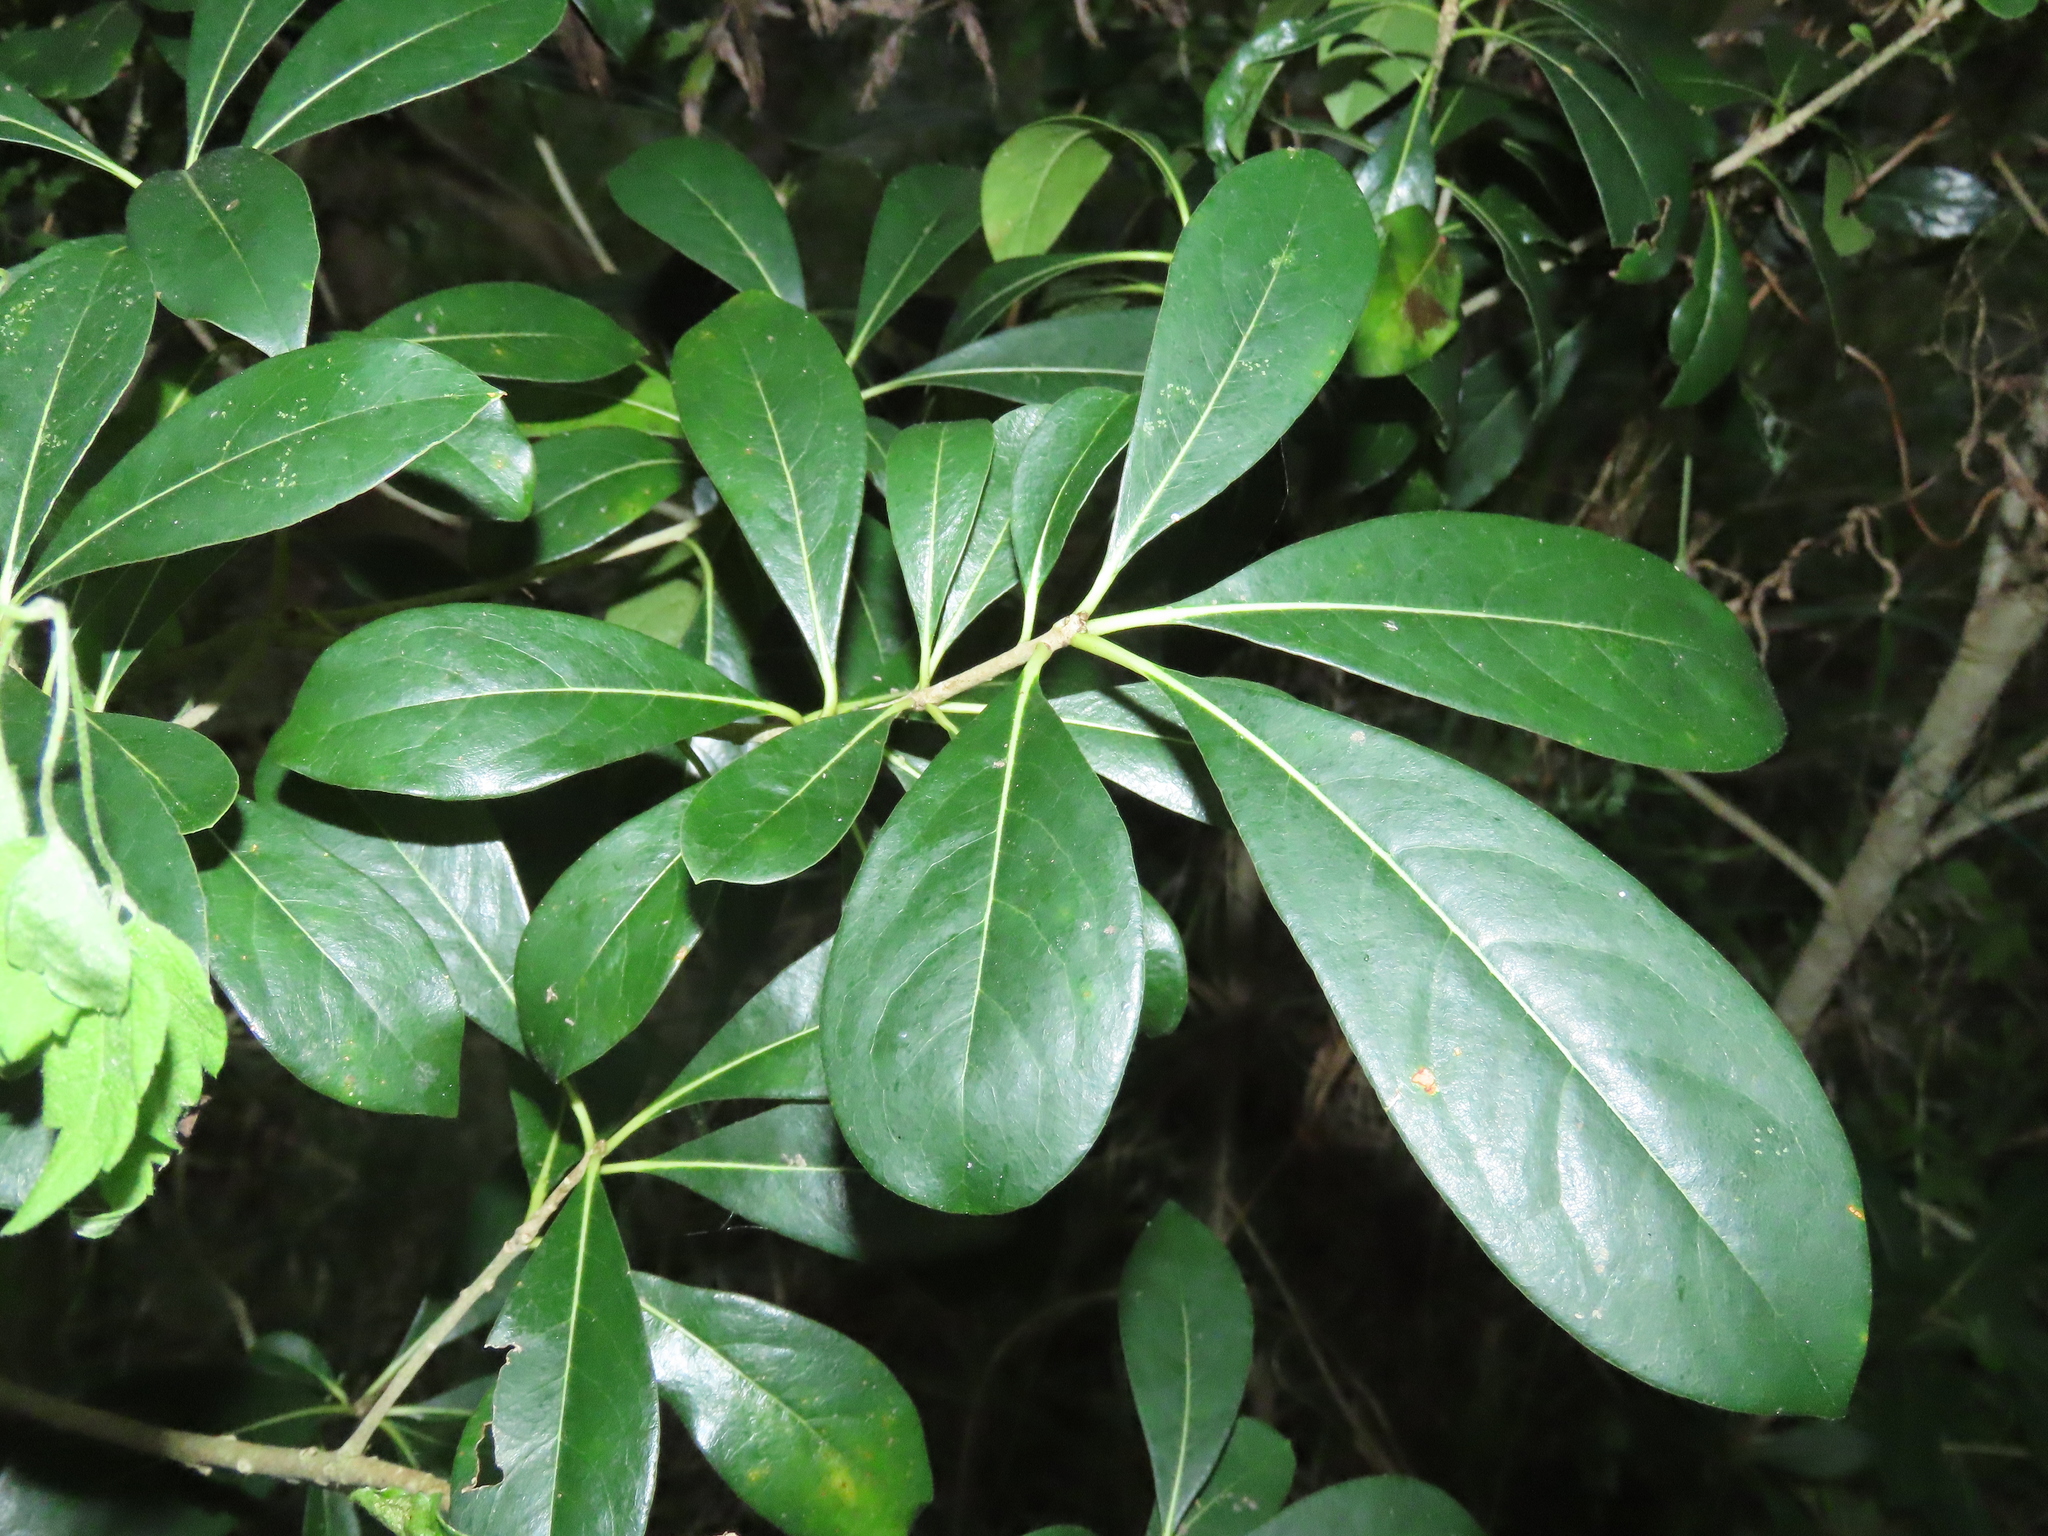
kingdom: Plantae
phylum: Tracheophyta
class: Magnoliopsida
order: Apiales
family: Pittosporaceae
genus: Pittosporum
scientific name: Pittosporum pentandrum
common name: Taiwanese cheesewood
